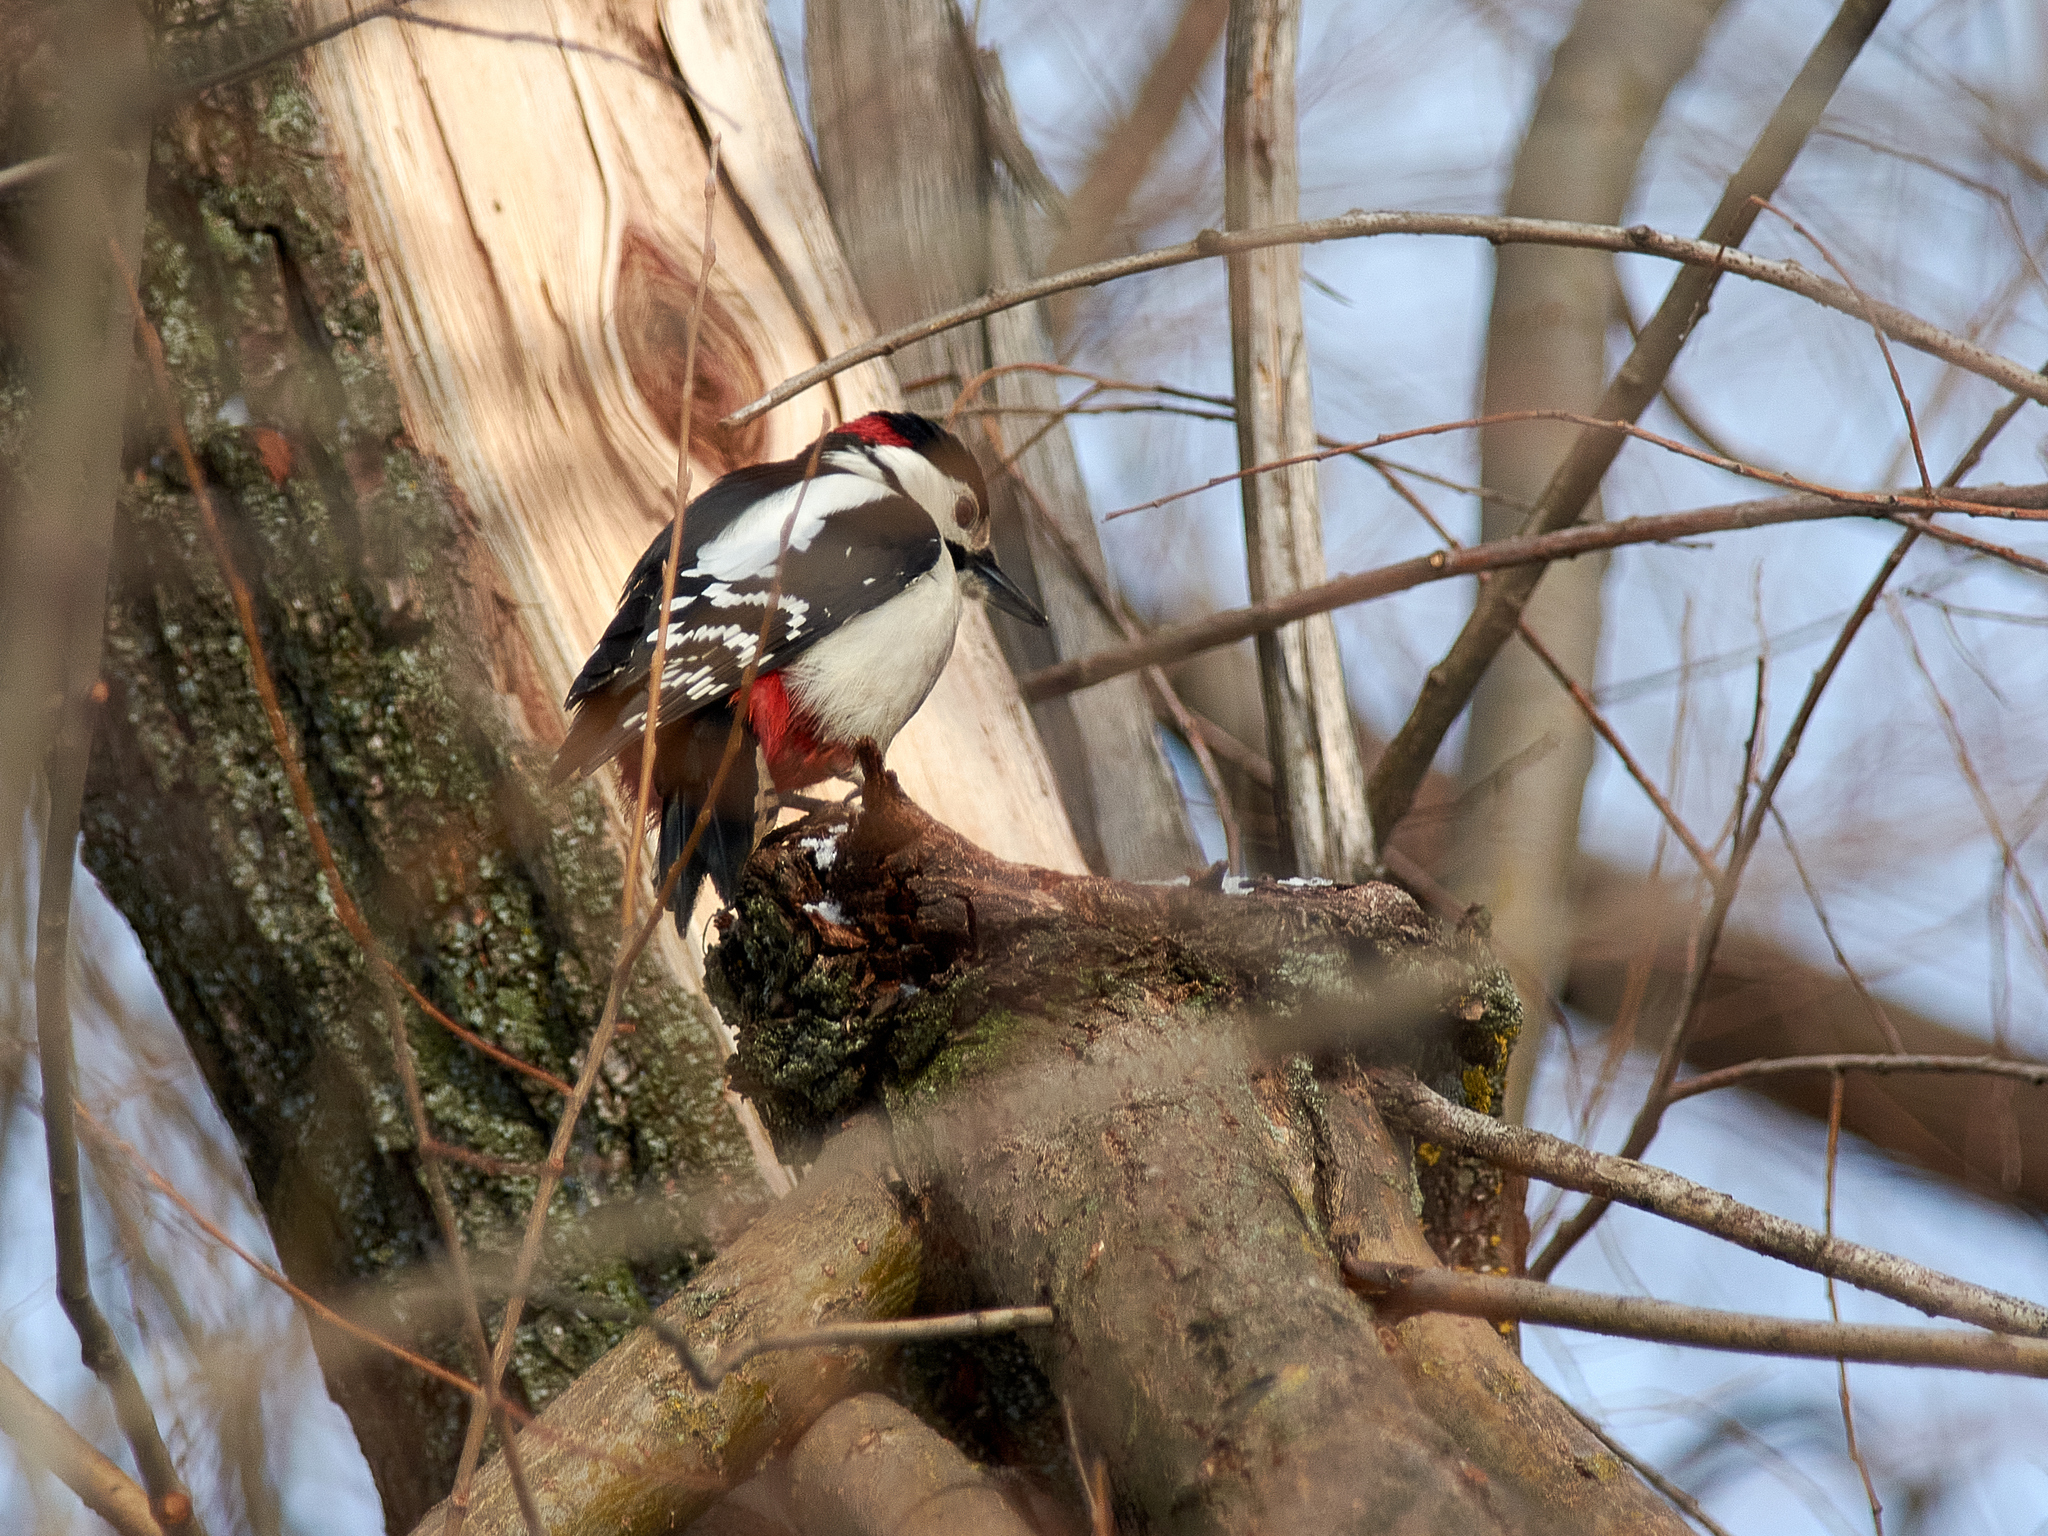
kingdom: Animalia
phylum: Chordata
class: Aves
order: Piciformes
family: Picidae
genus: Dendrocopos
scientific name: Dendrocopos major
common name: Great spotted woodpecker
